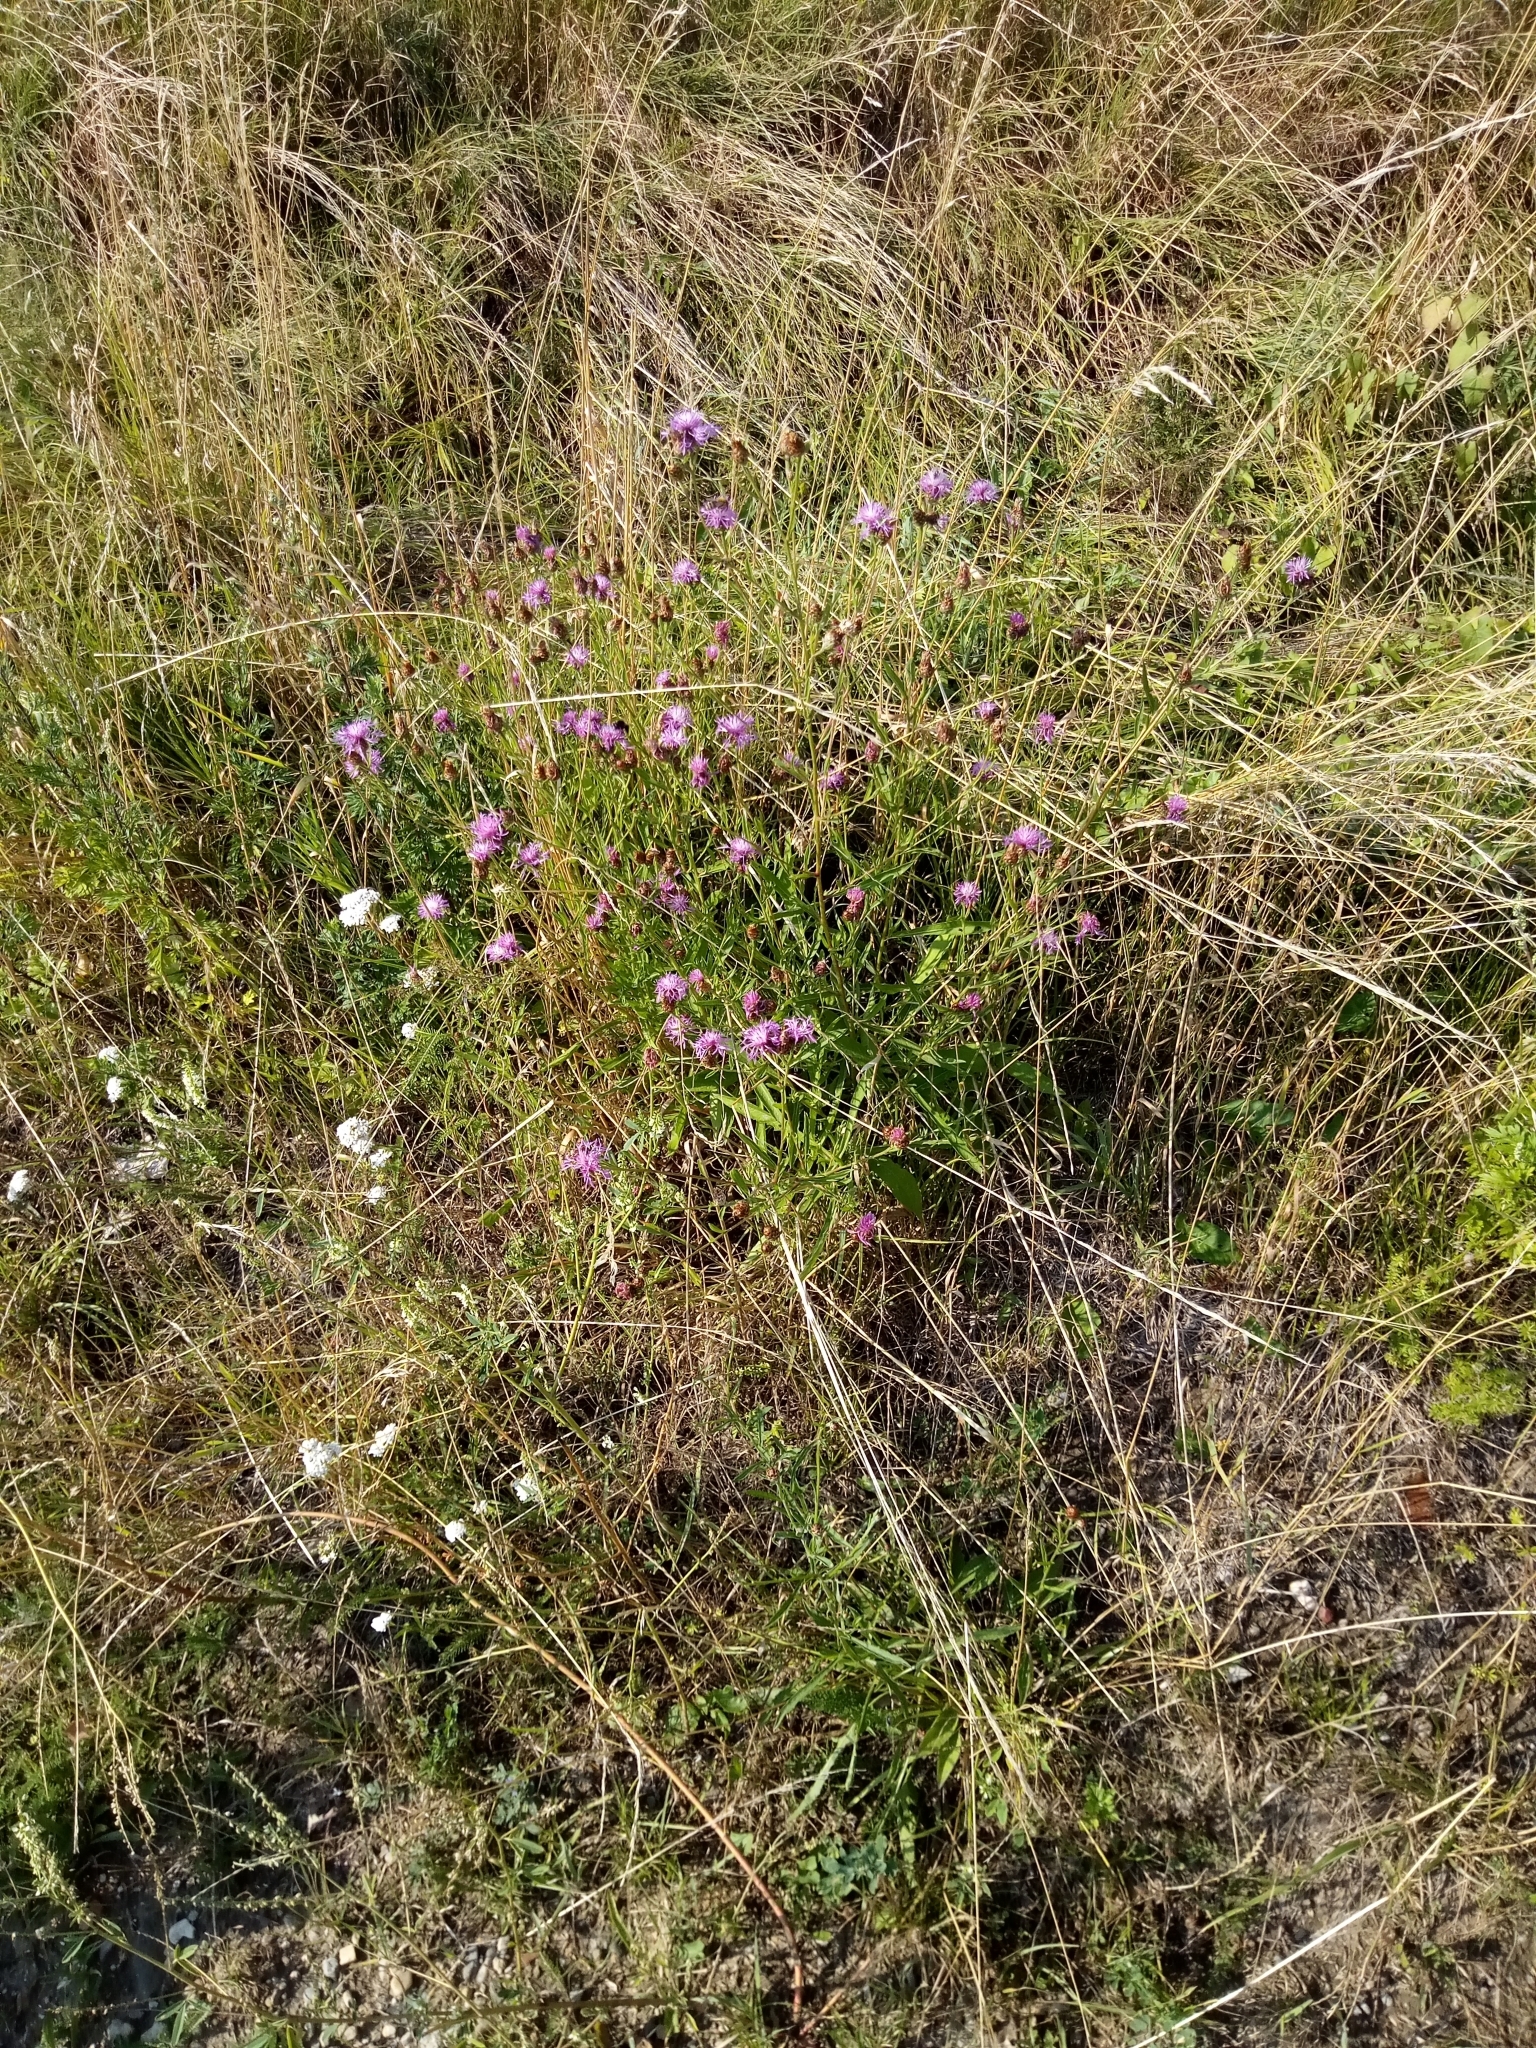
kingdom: Plantae
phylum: Tracheophyta
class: Magnoliopsida
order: Asterales
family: Asteraceae
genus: Centaurea
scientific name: Centaurea jacea
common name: Brown knapweed
